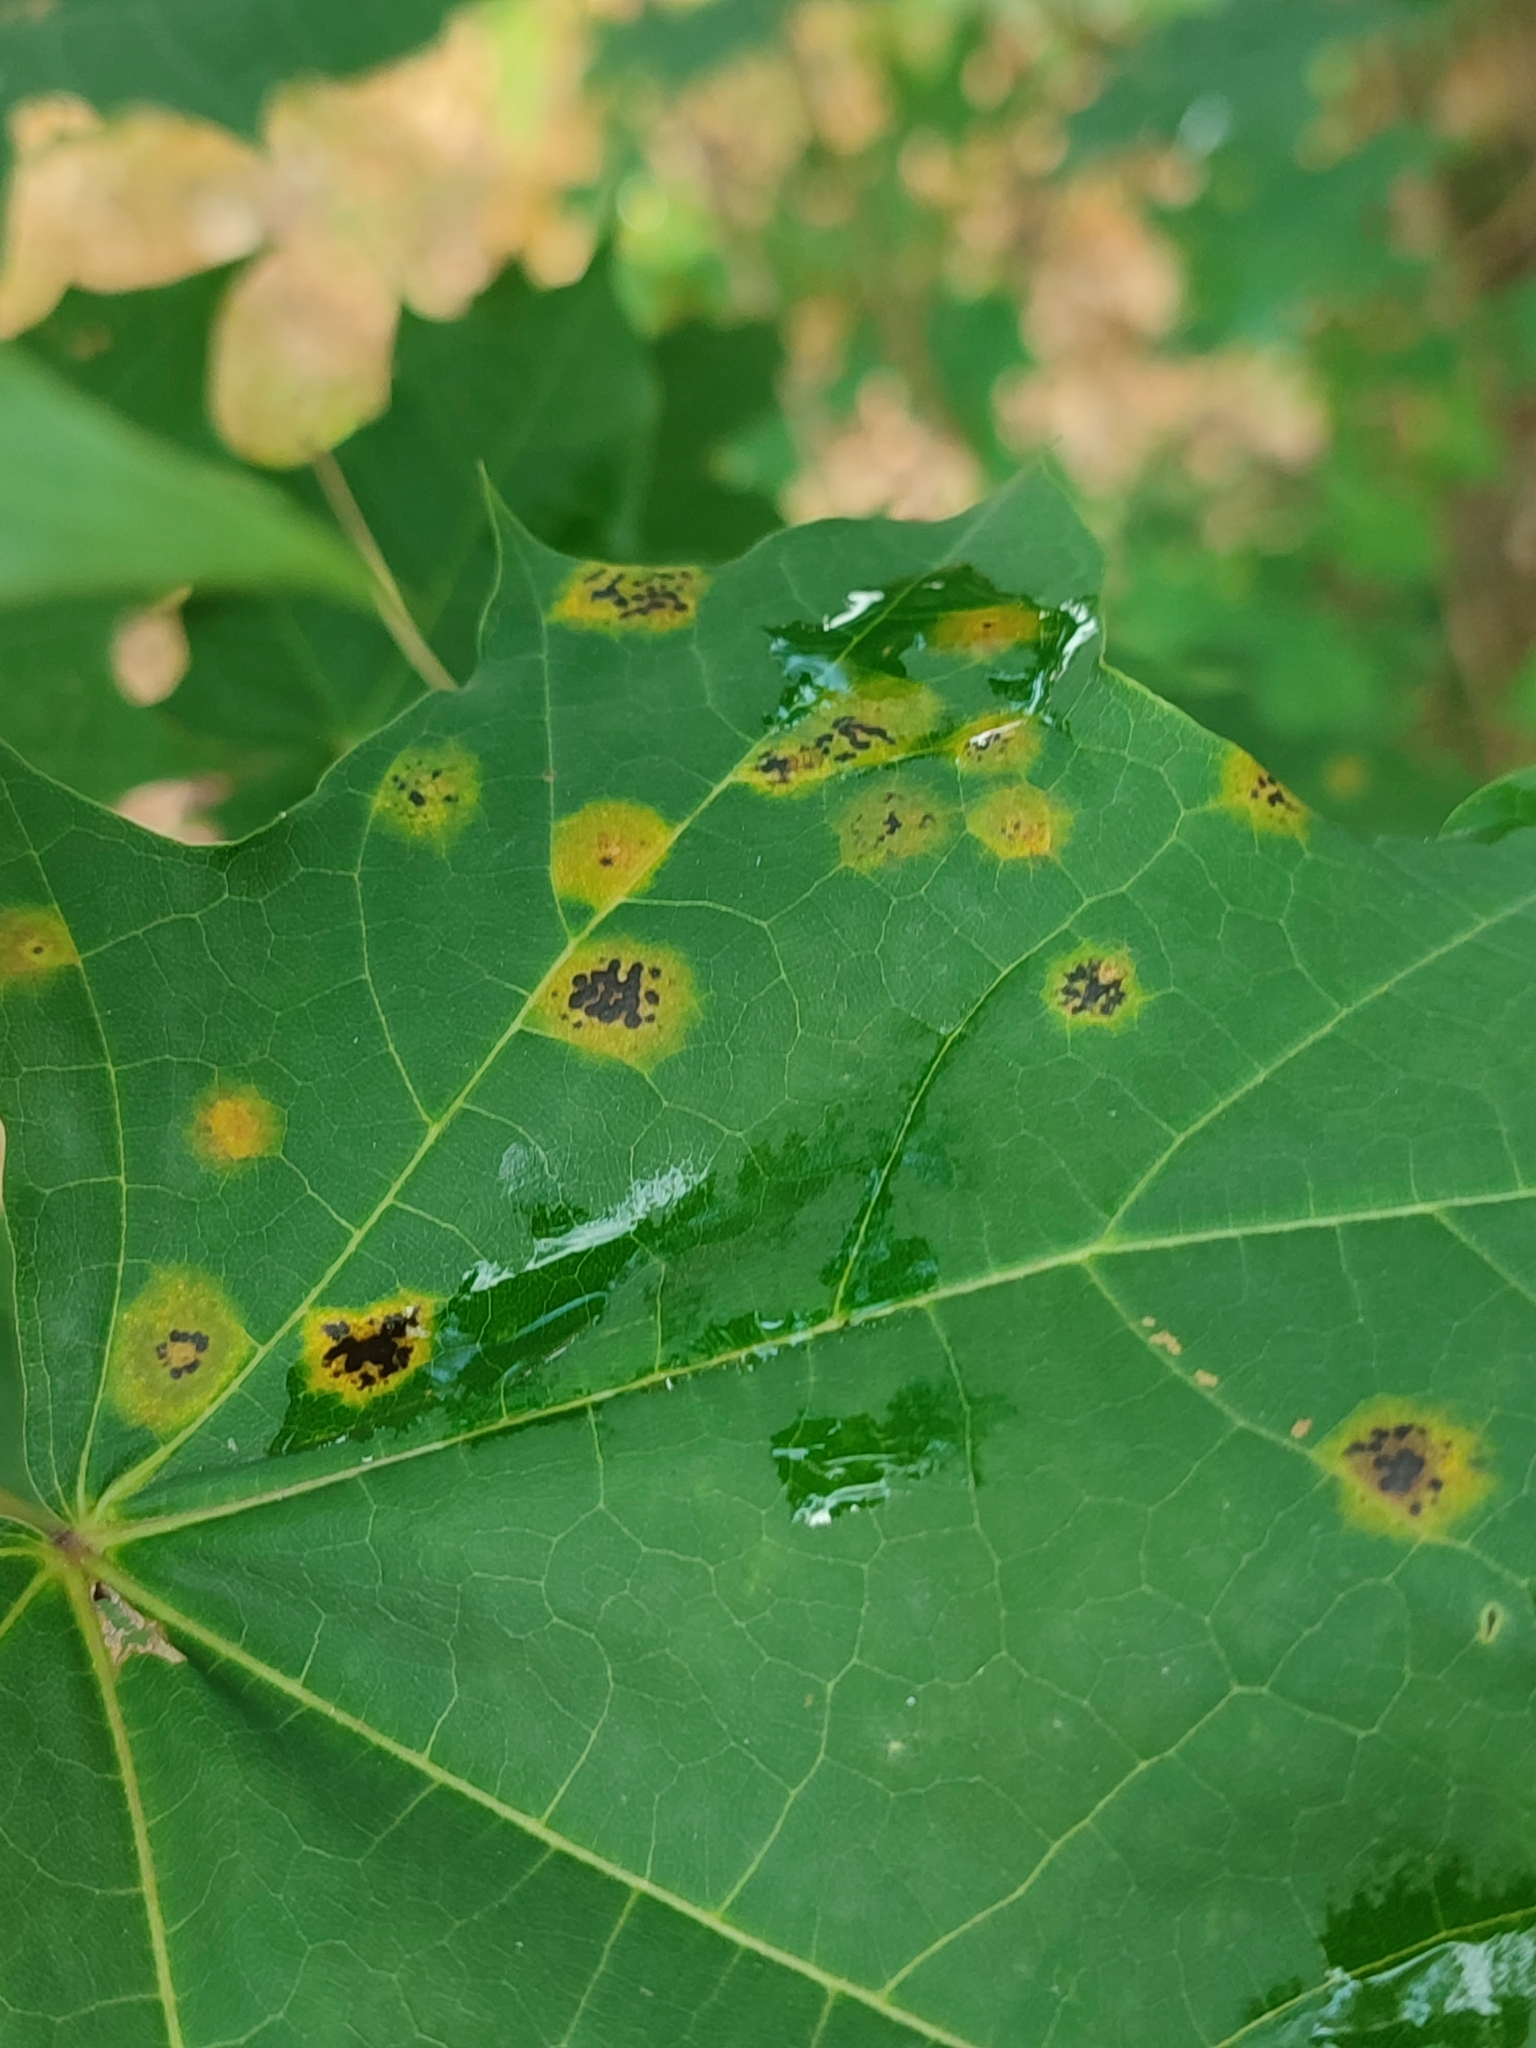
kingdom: Fungi
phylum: Ascomycota
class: Leotiomycetes
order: Rhytismatales
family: Rhytismataceae
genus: Rhytisma
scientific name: Rhytisma acerinum
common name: European tar spot
